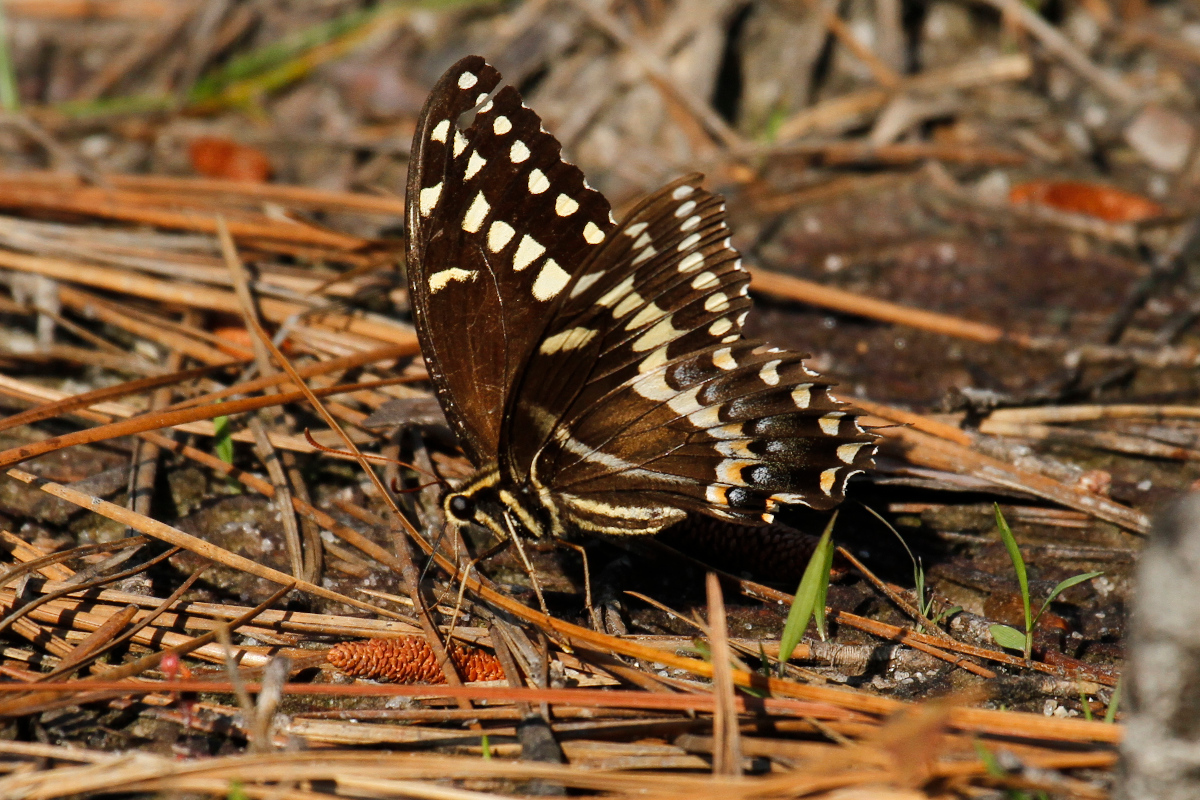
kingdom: Animalia
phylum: Arthropoda
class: Insecta
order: Lepidoptera
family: Papilionidae
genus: Papilio
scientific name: Papilio palamedes
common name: Palamedes swallowtail
